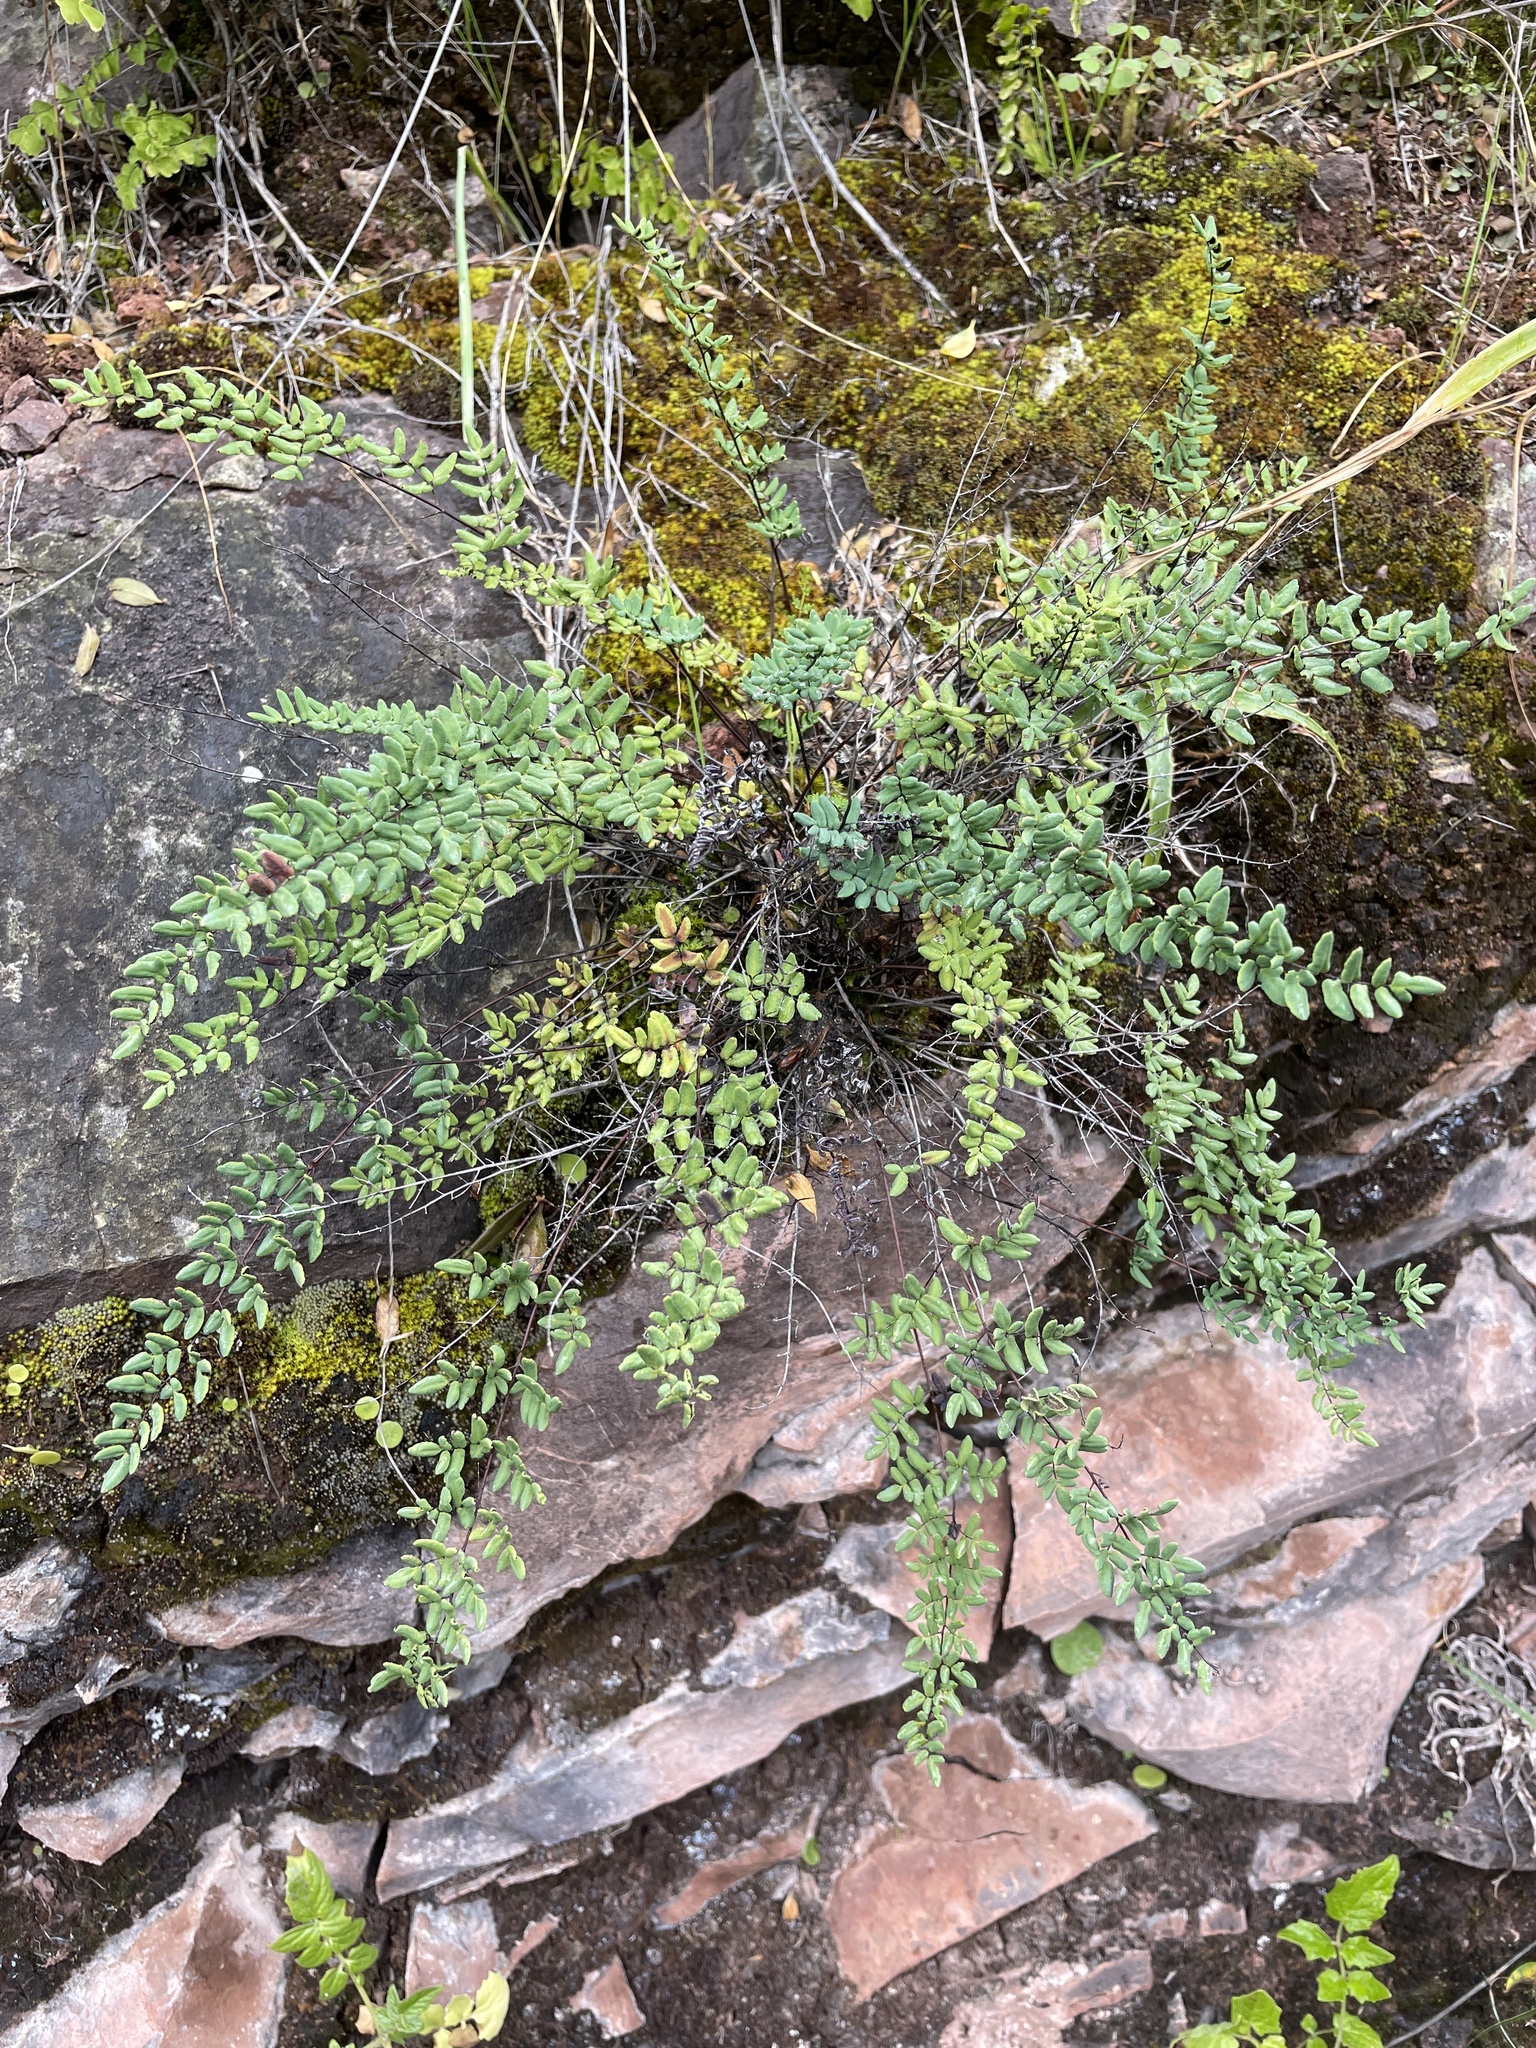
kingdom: Plantae
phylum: Tracheophyta
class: Polypodiopsida
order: Polypodiales
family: Pteridaceae
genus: Argyrochosma
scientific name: Argyrochosma tenera
